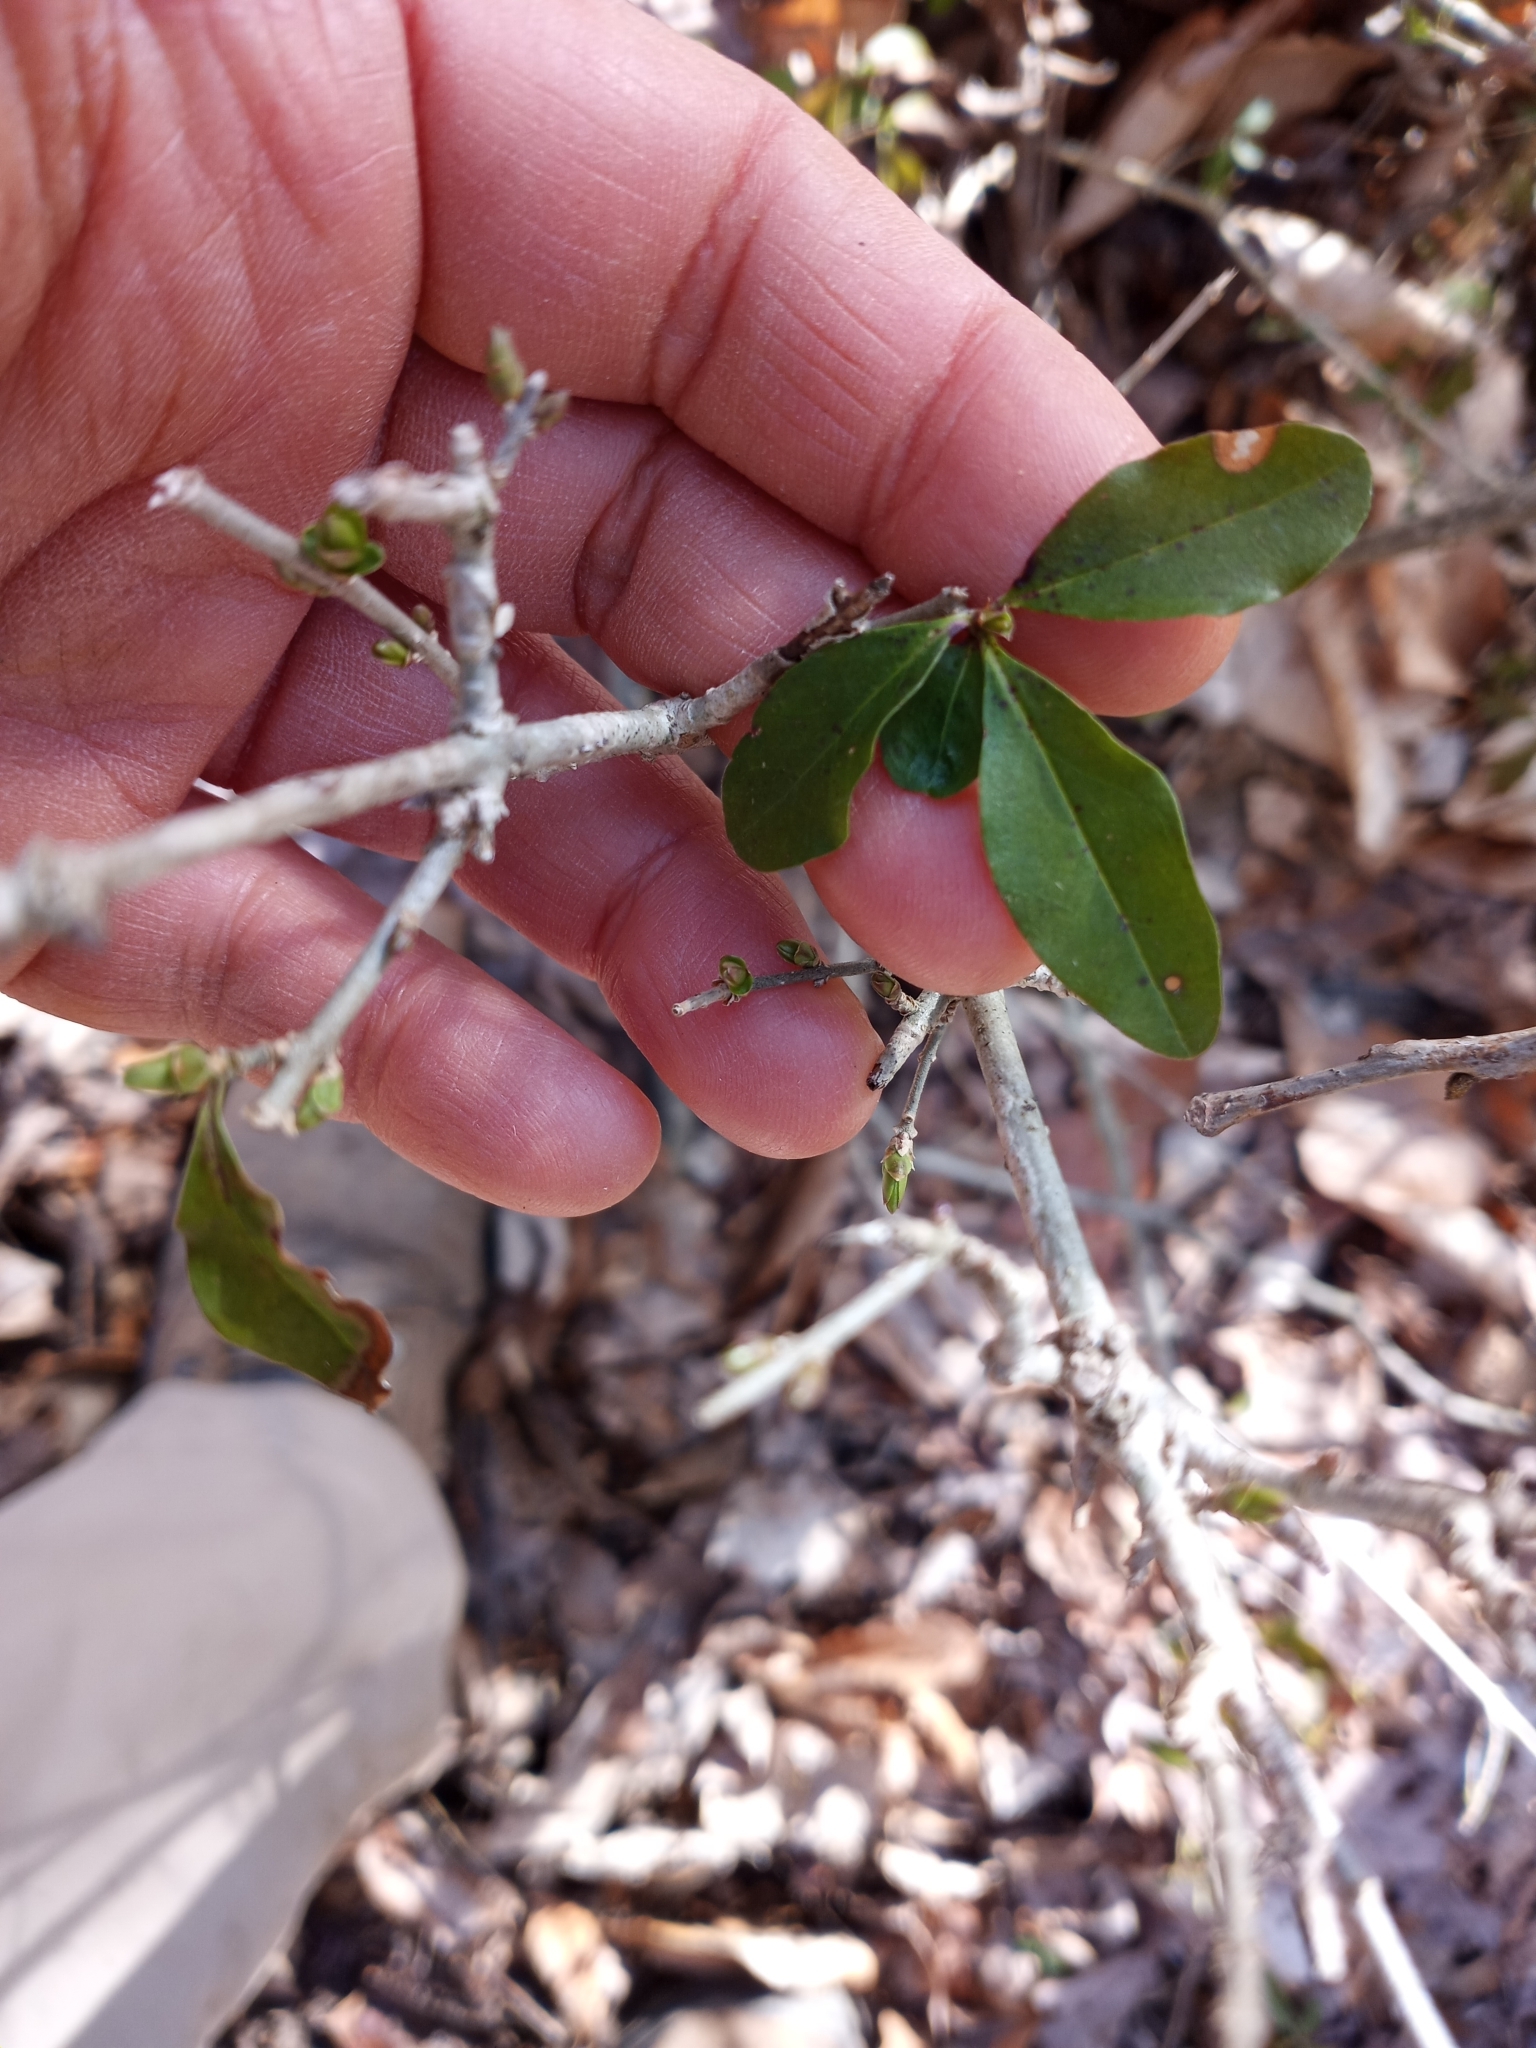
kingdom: Plantae
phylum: Tracheophyta
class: Magnoliopsida
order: Lamiales
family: Oleaceae
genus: Ligustrum
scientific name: Ligustrum obtusifolium
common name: Border privet
